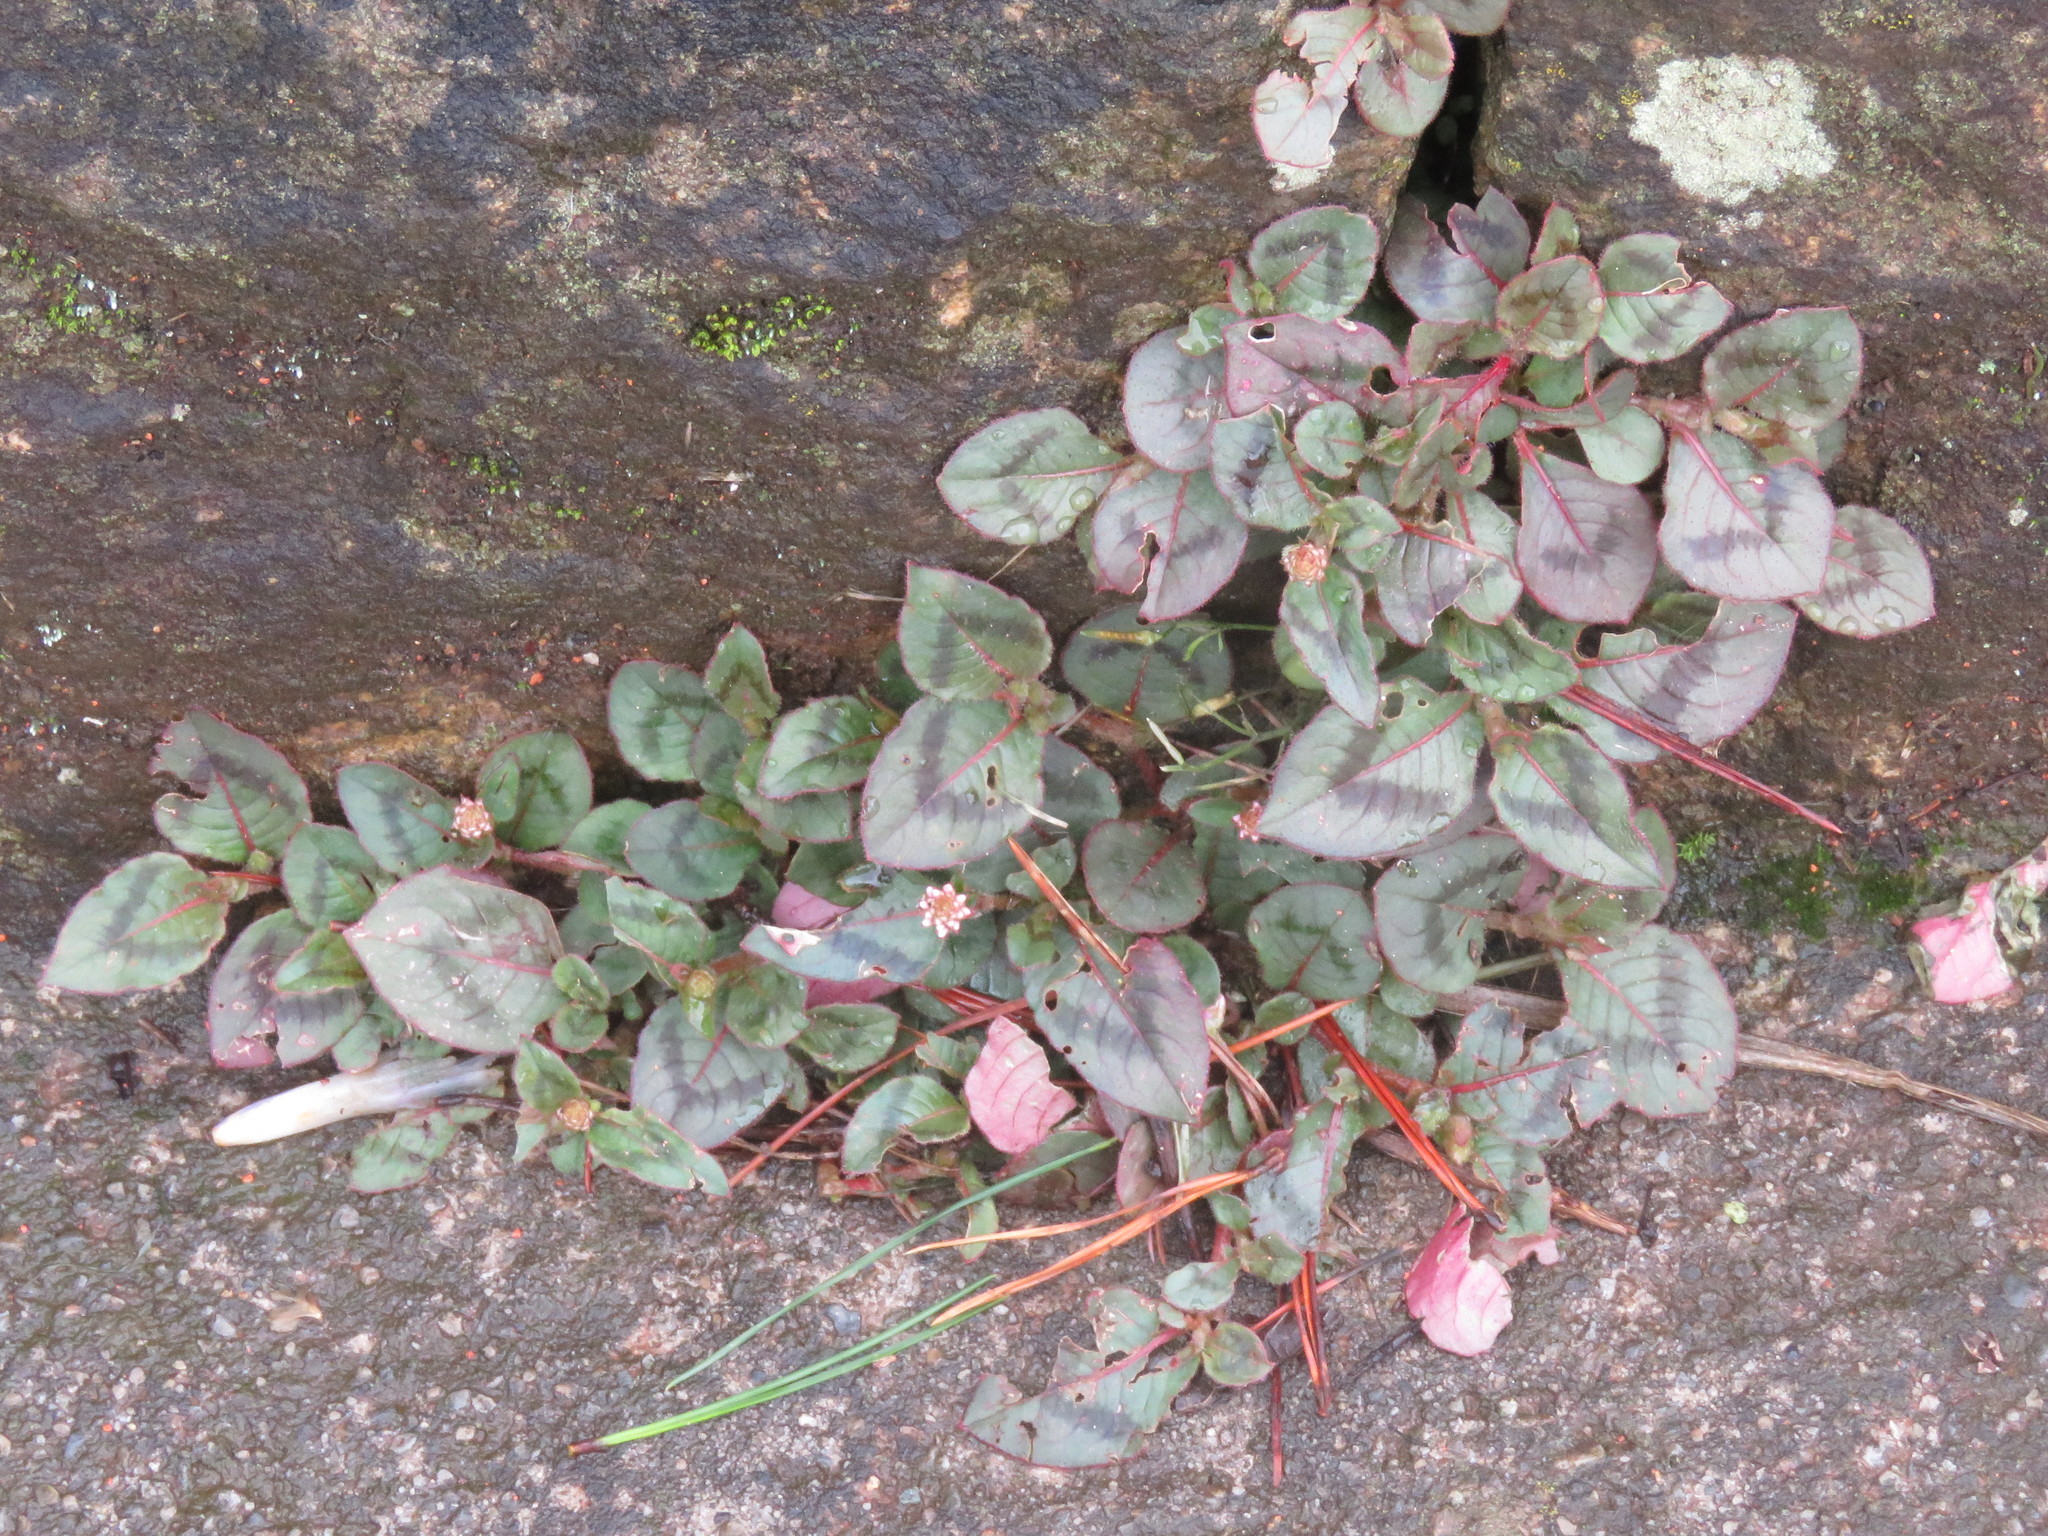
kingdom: Plantae
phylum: Tracheophyta
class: Magnoliopsida
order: Caryophyllales
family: Polygonaceae
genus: Persicaria
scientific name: Persicaria capitata
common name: Pinkhead smartweed
